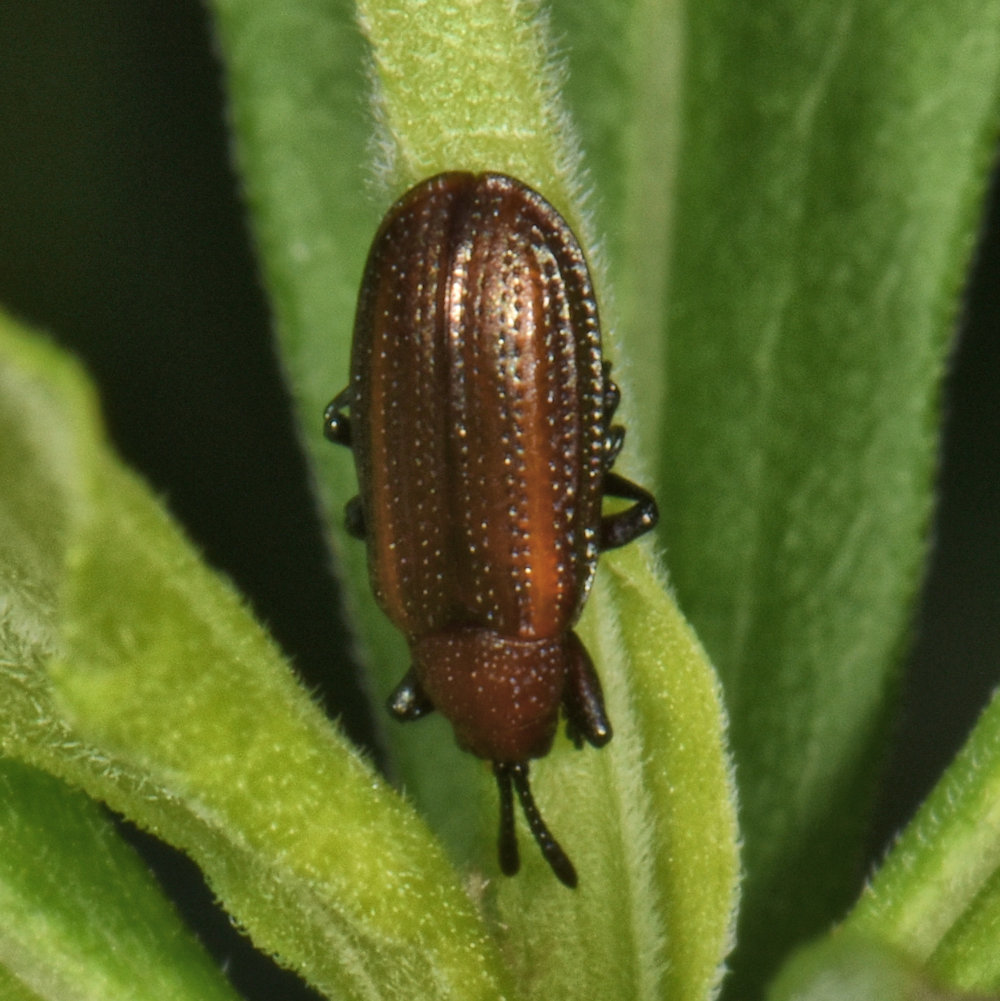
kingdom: Animalia
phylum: Arthropoda
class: Insecta
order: Coleoptera
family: Chrysomelidae
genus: Microrhopala
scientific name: Microrhopala vittata
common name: Goldenrod leaf miner beetle
